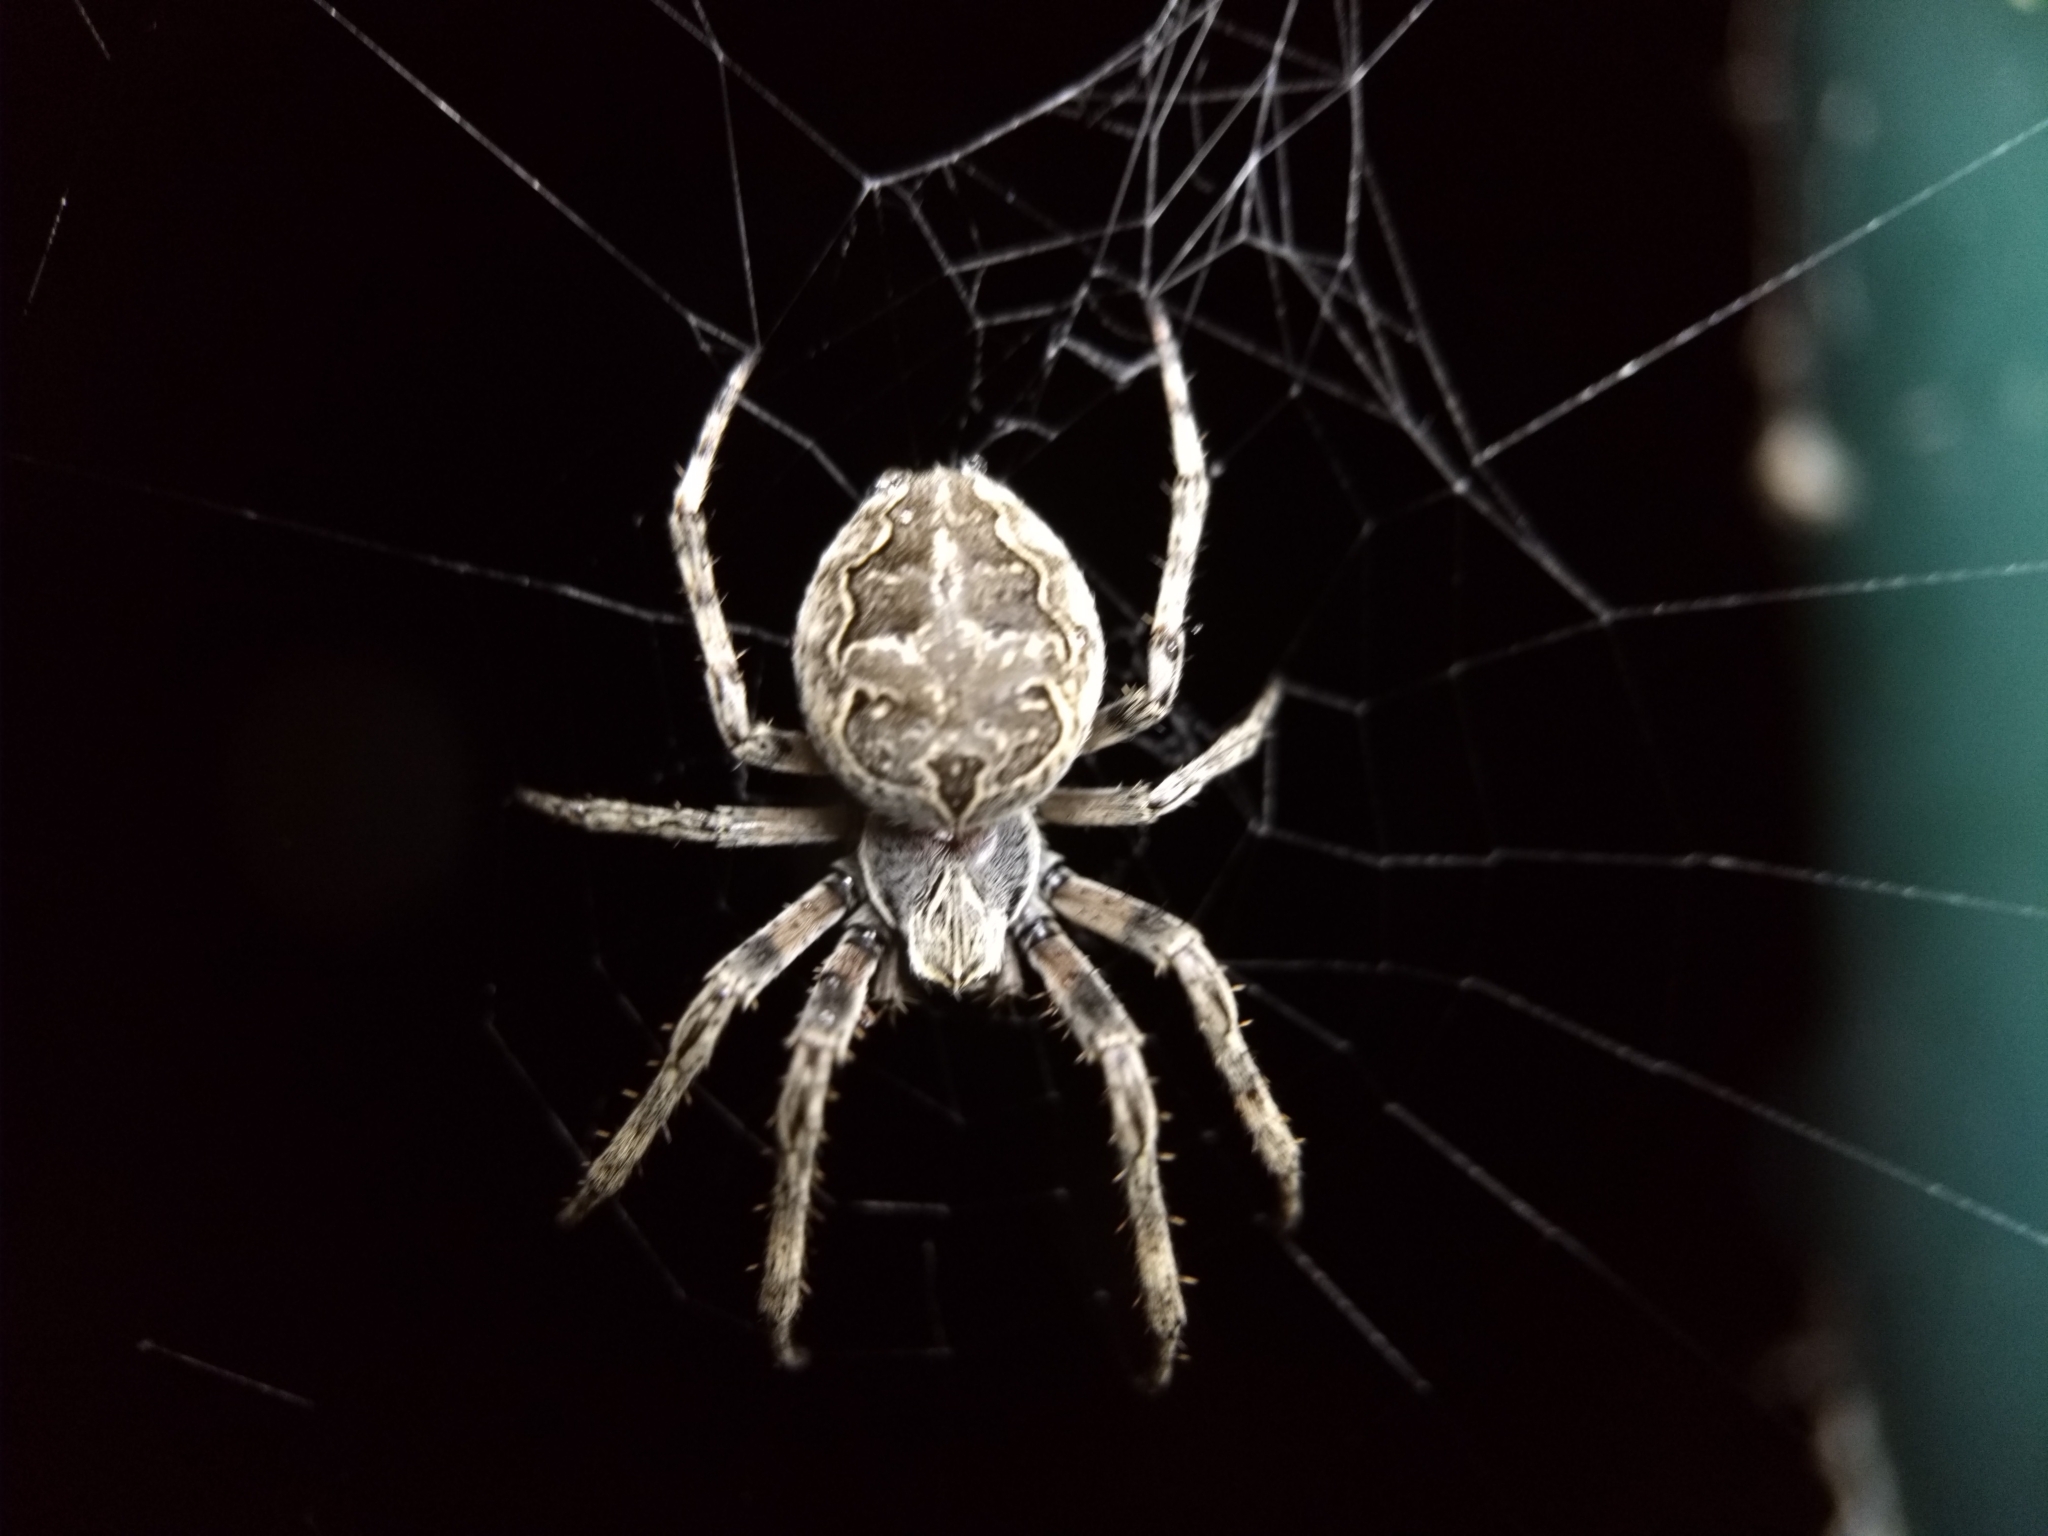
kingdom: Animalia
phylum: Arthropoda
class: Arachnida
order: Araneae
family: Araneidae
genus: Larinioides
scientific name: Larinioides sclopetarius
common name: Bridge orbweaver
